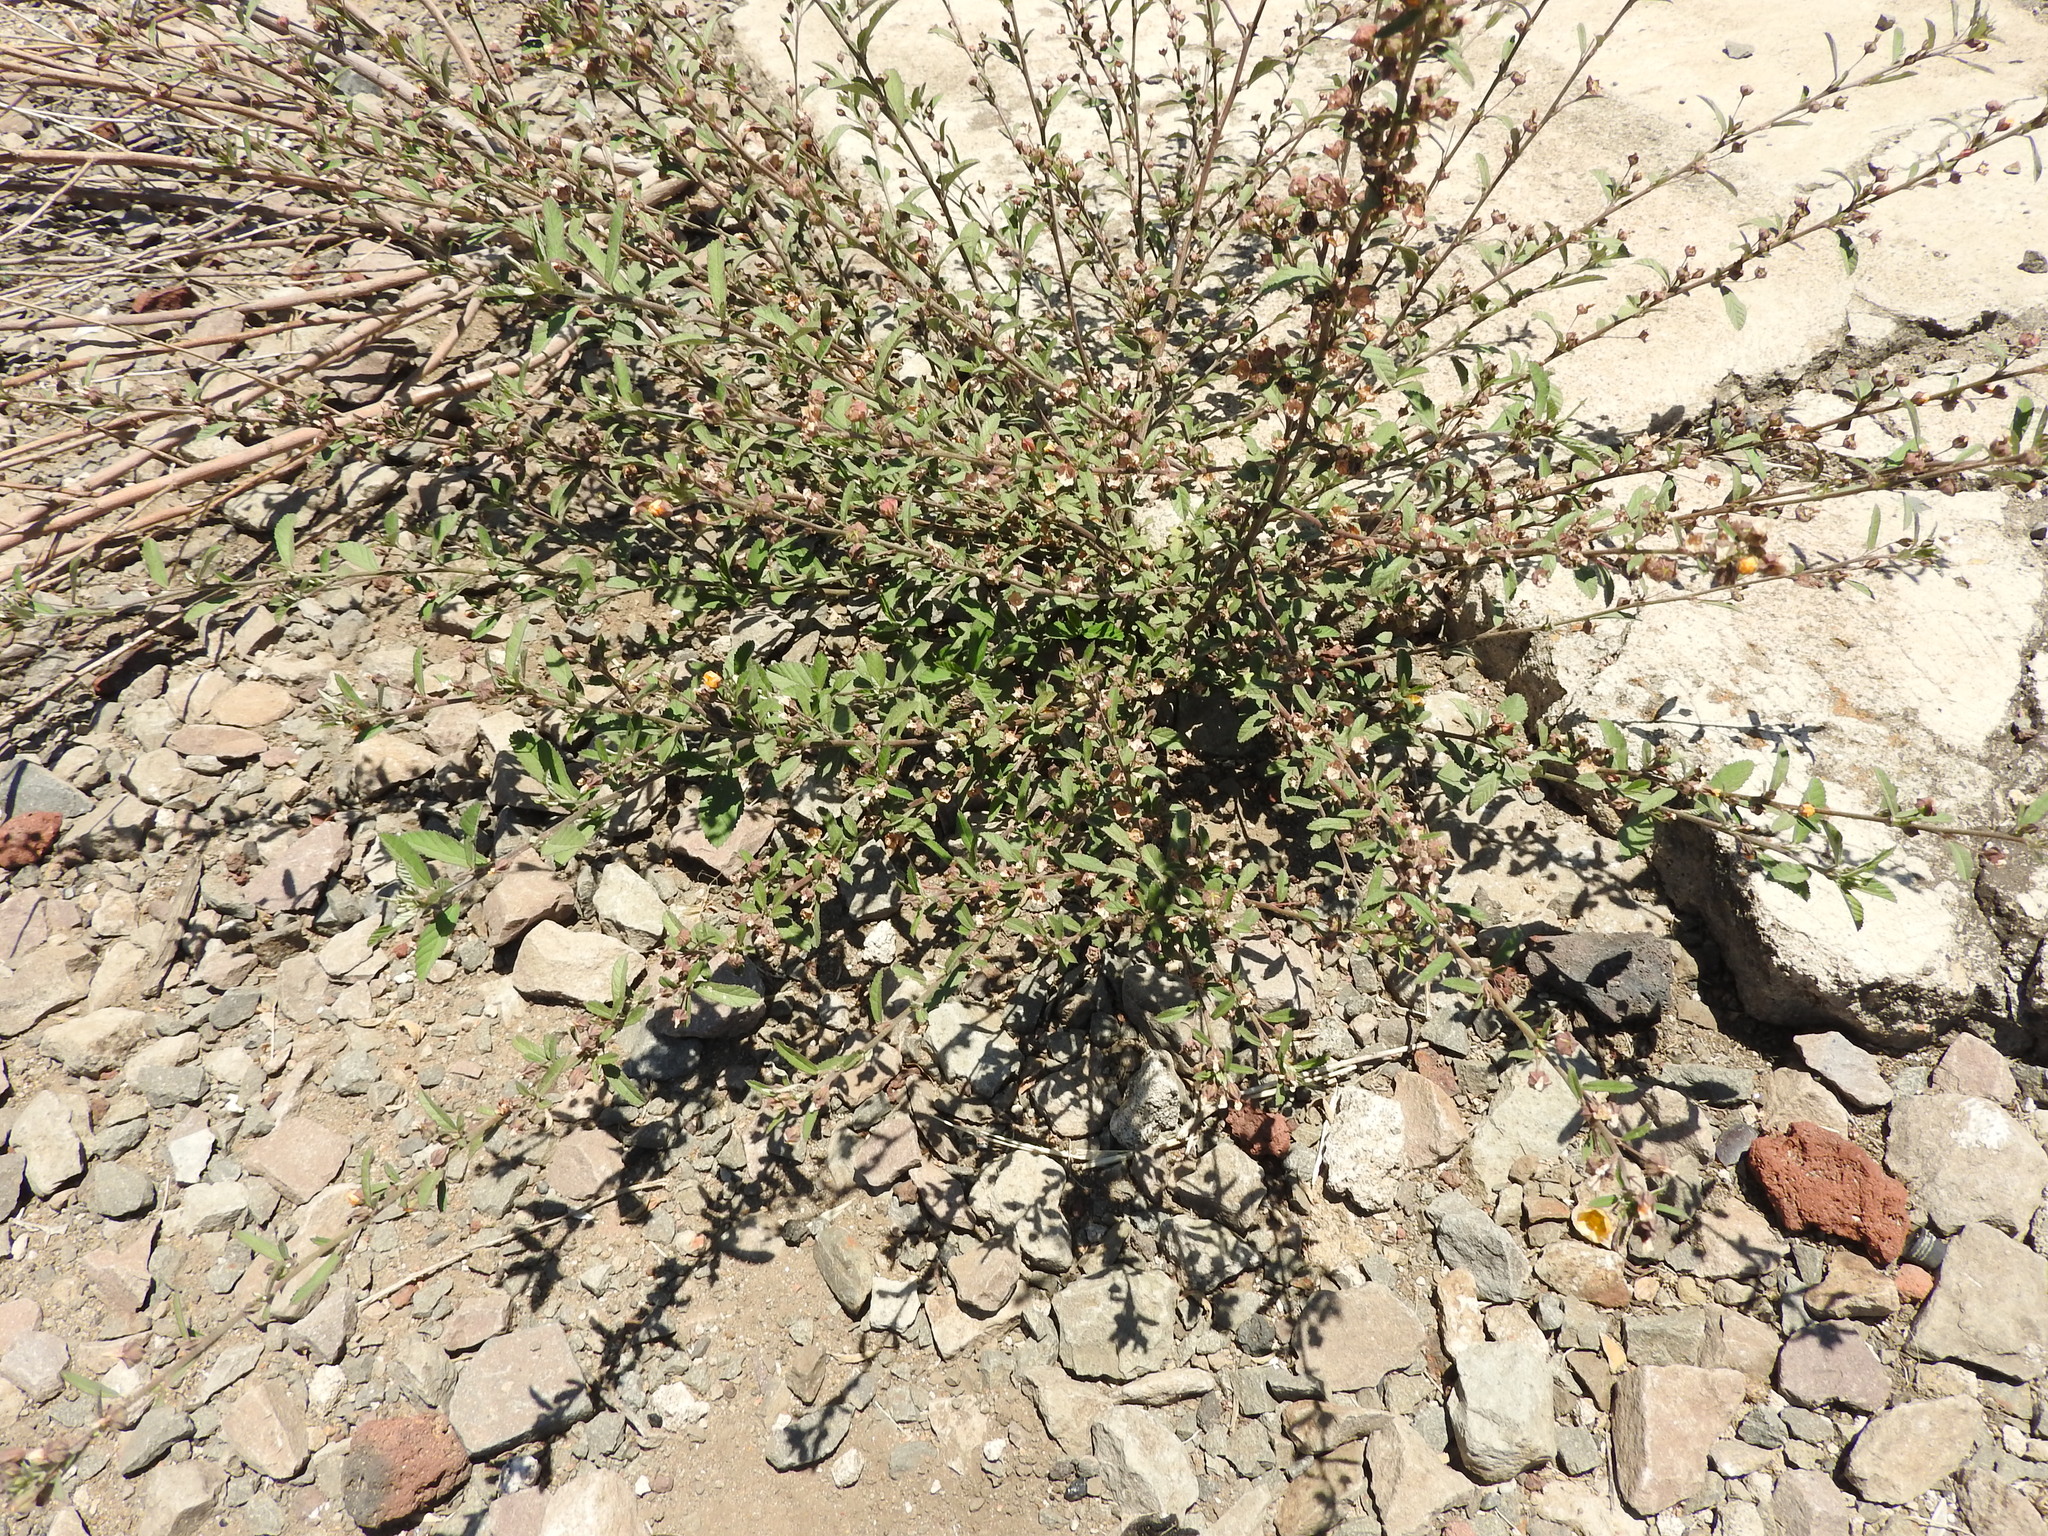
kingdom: Plantae
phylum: Tracheophyta
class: Magnoliopsida
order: Malvales
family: Malvaceae
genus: Sida
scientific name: Sida rhombifolia
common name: Queensland-hemp
